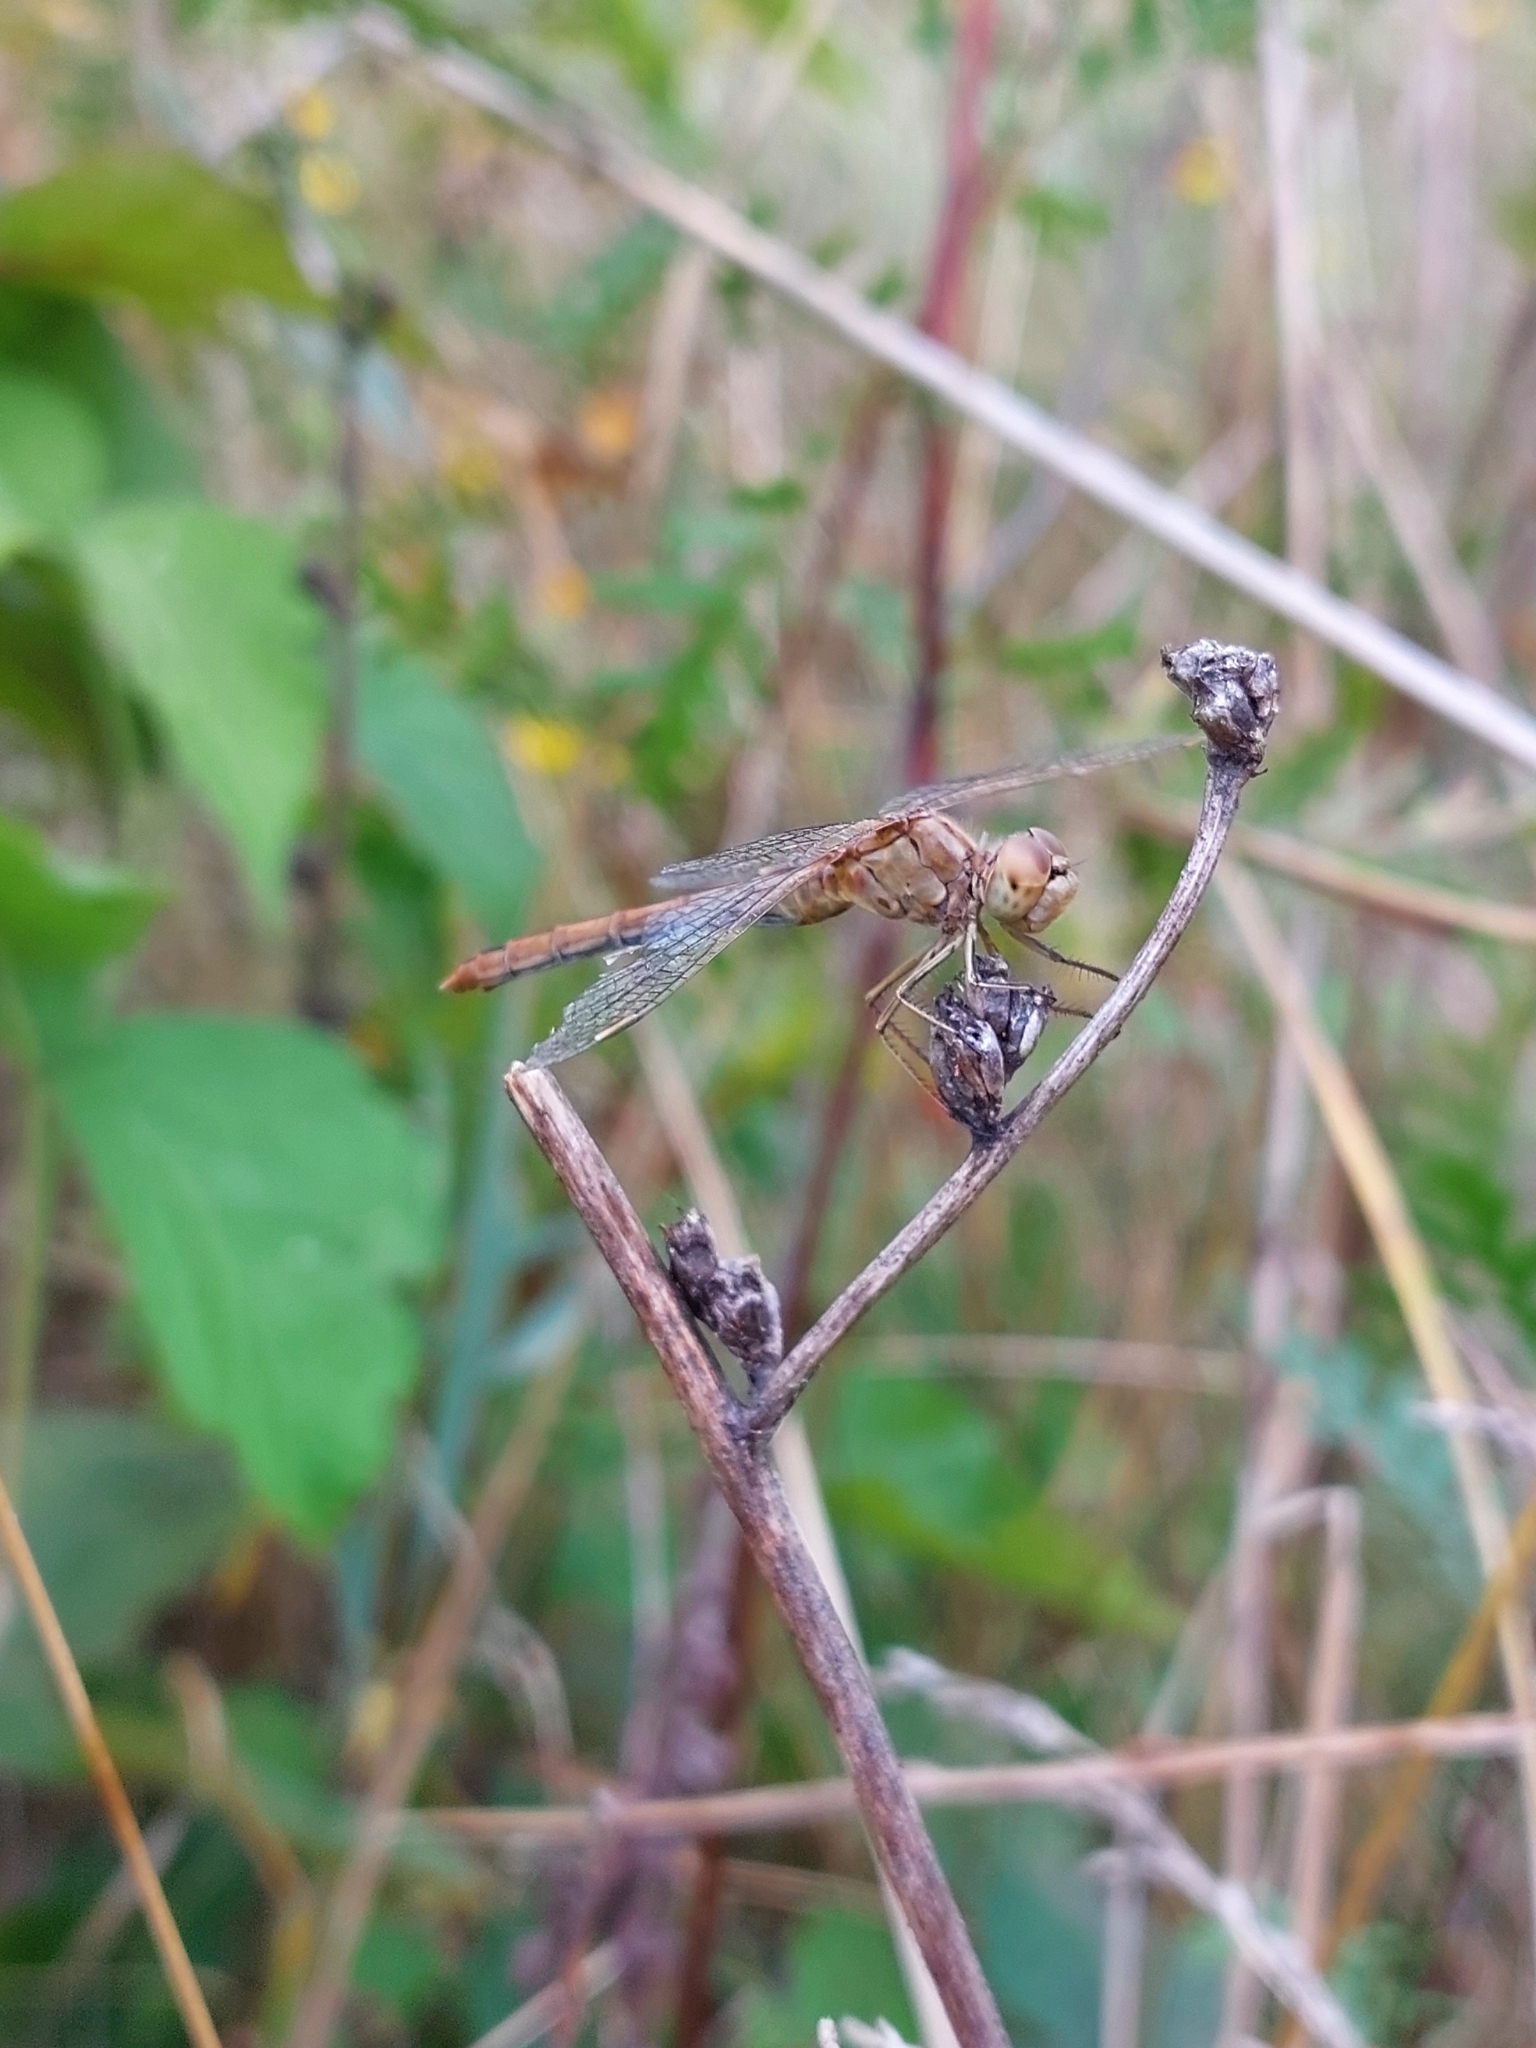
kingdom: Animalia
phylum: Arthropoda
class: Insecta
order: Odonata
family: Libellulidae
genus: Sympetrum
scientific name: Sympetrum meridionale
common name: Southern darter
